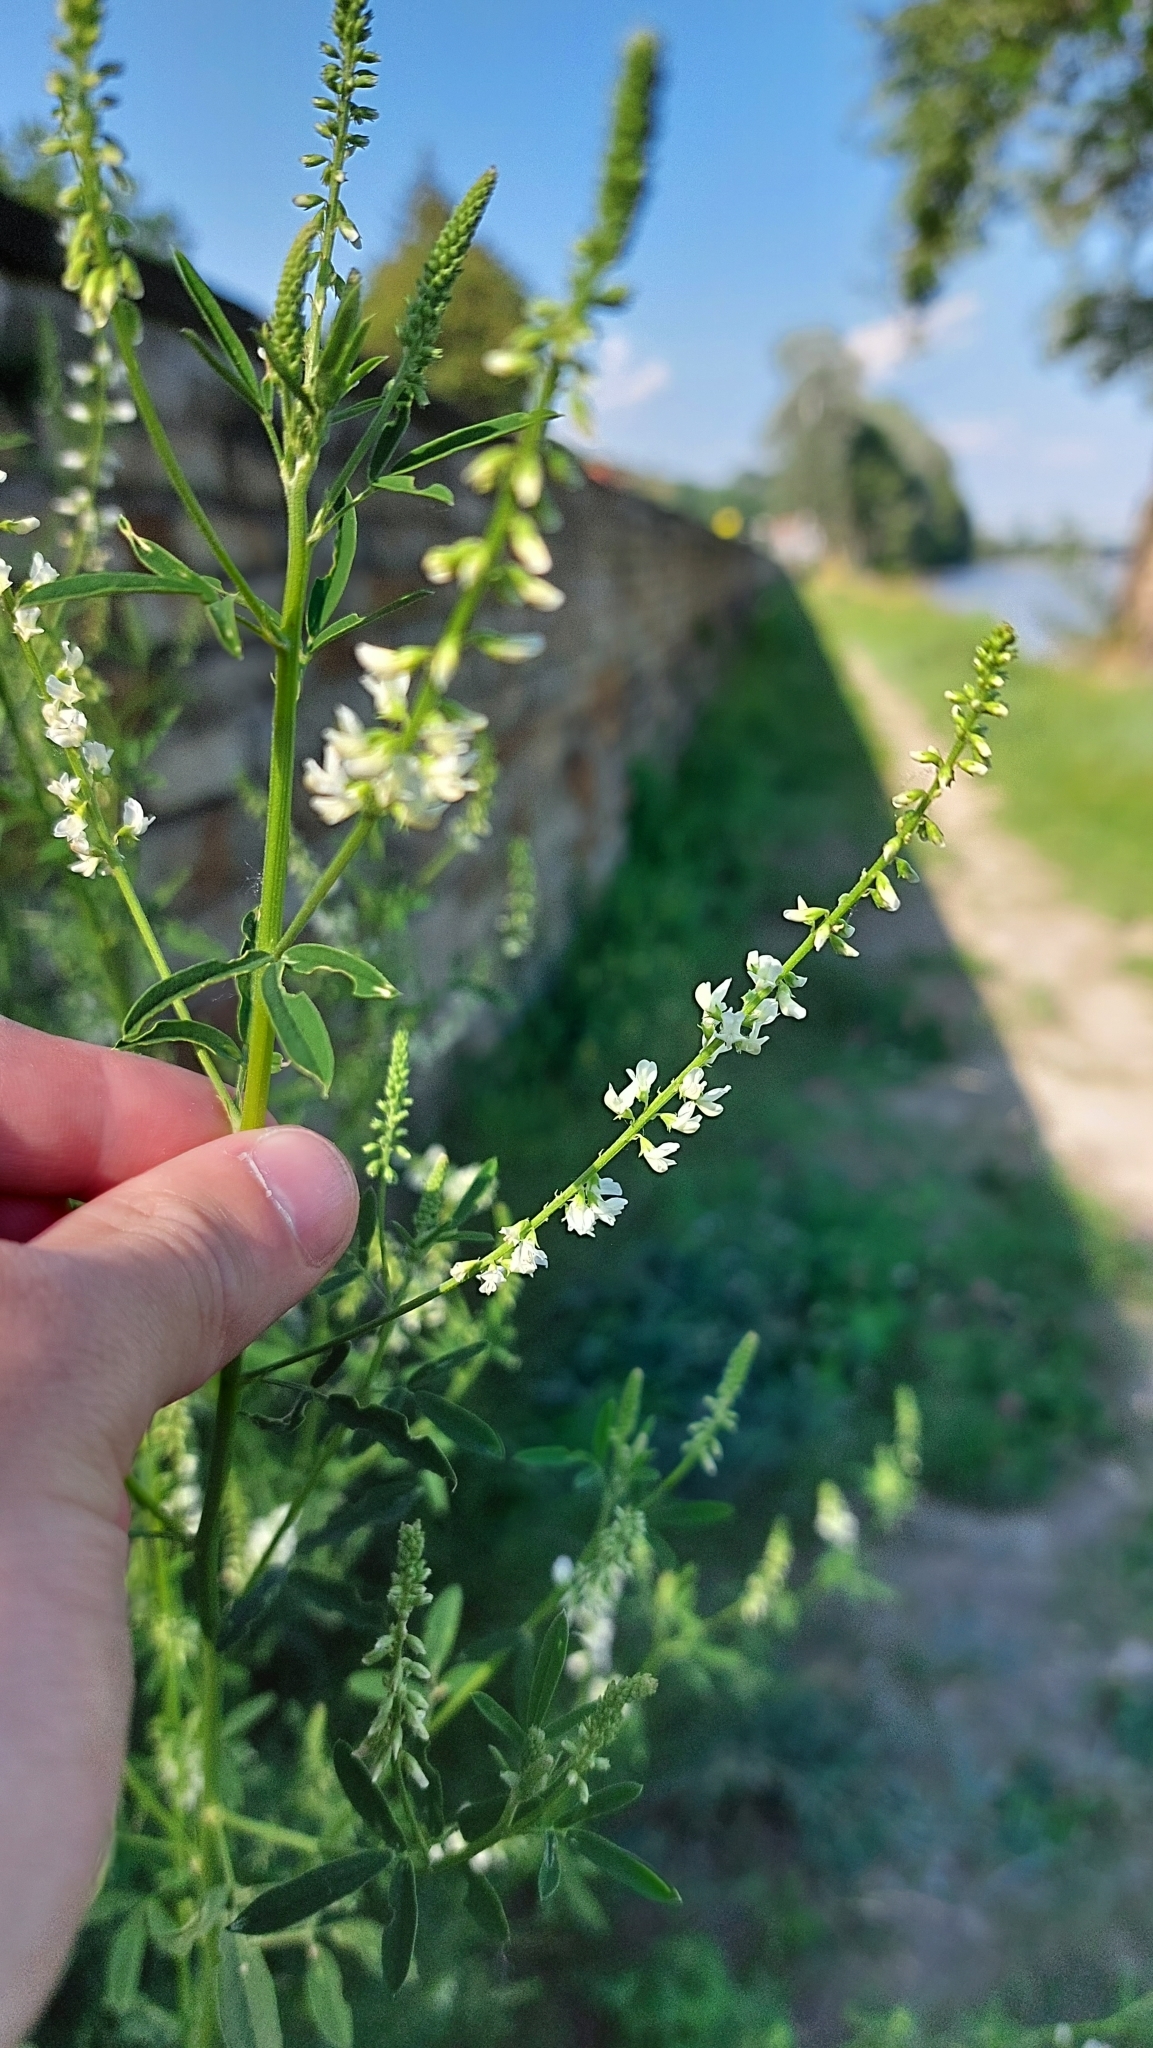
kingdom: Plantae
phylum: Tracheophyta
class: Magnoliopsida
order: Fabales
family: Fabaceae
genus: Melilotus
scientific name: Melilotus albus
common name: White melilot
